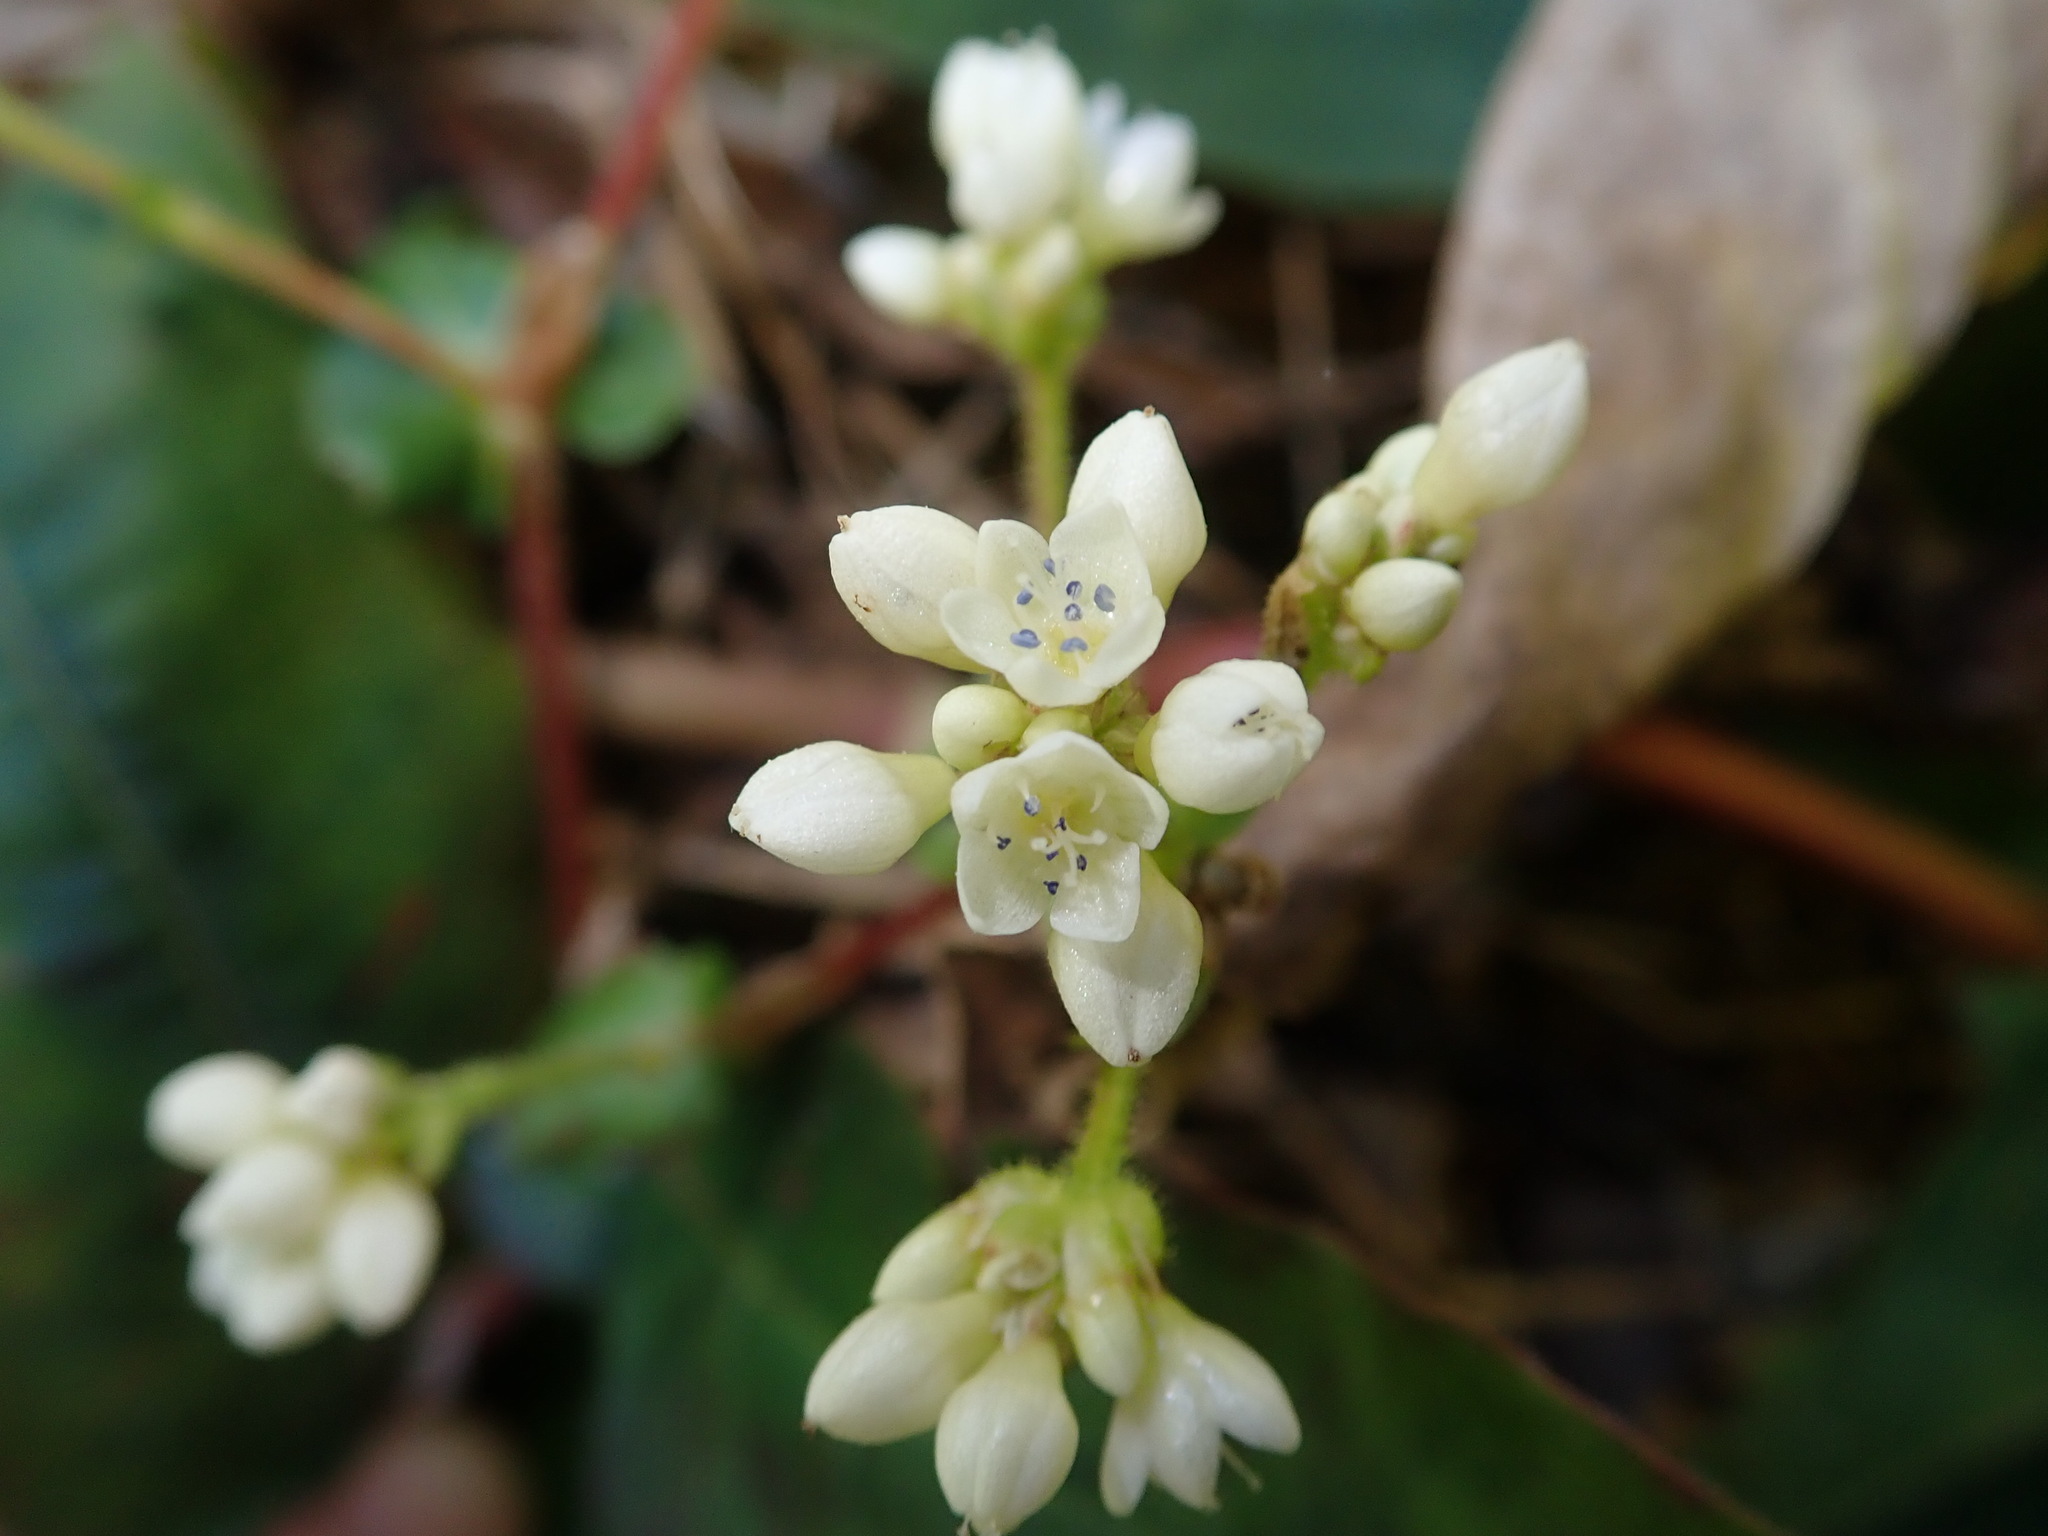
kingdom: Plantae
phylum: Tracheophyta
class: Magnoliopsida
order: Caryophyllales
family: Polygonaceae
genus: Persicaria
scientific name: Persicaria chinensis
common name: Chinese knotweed
